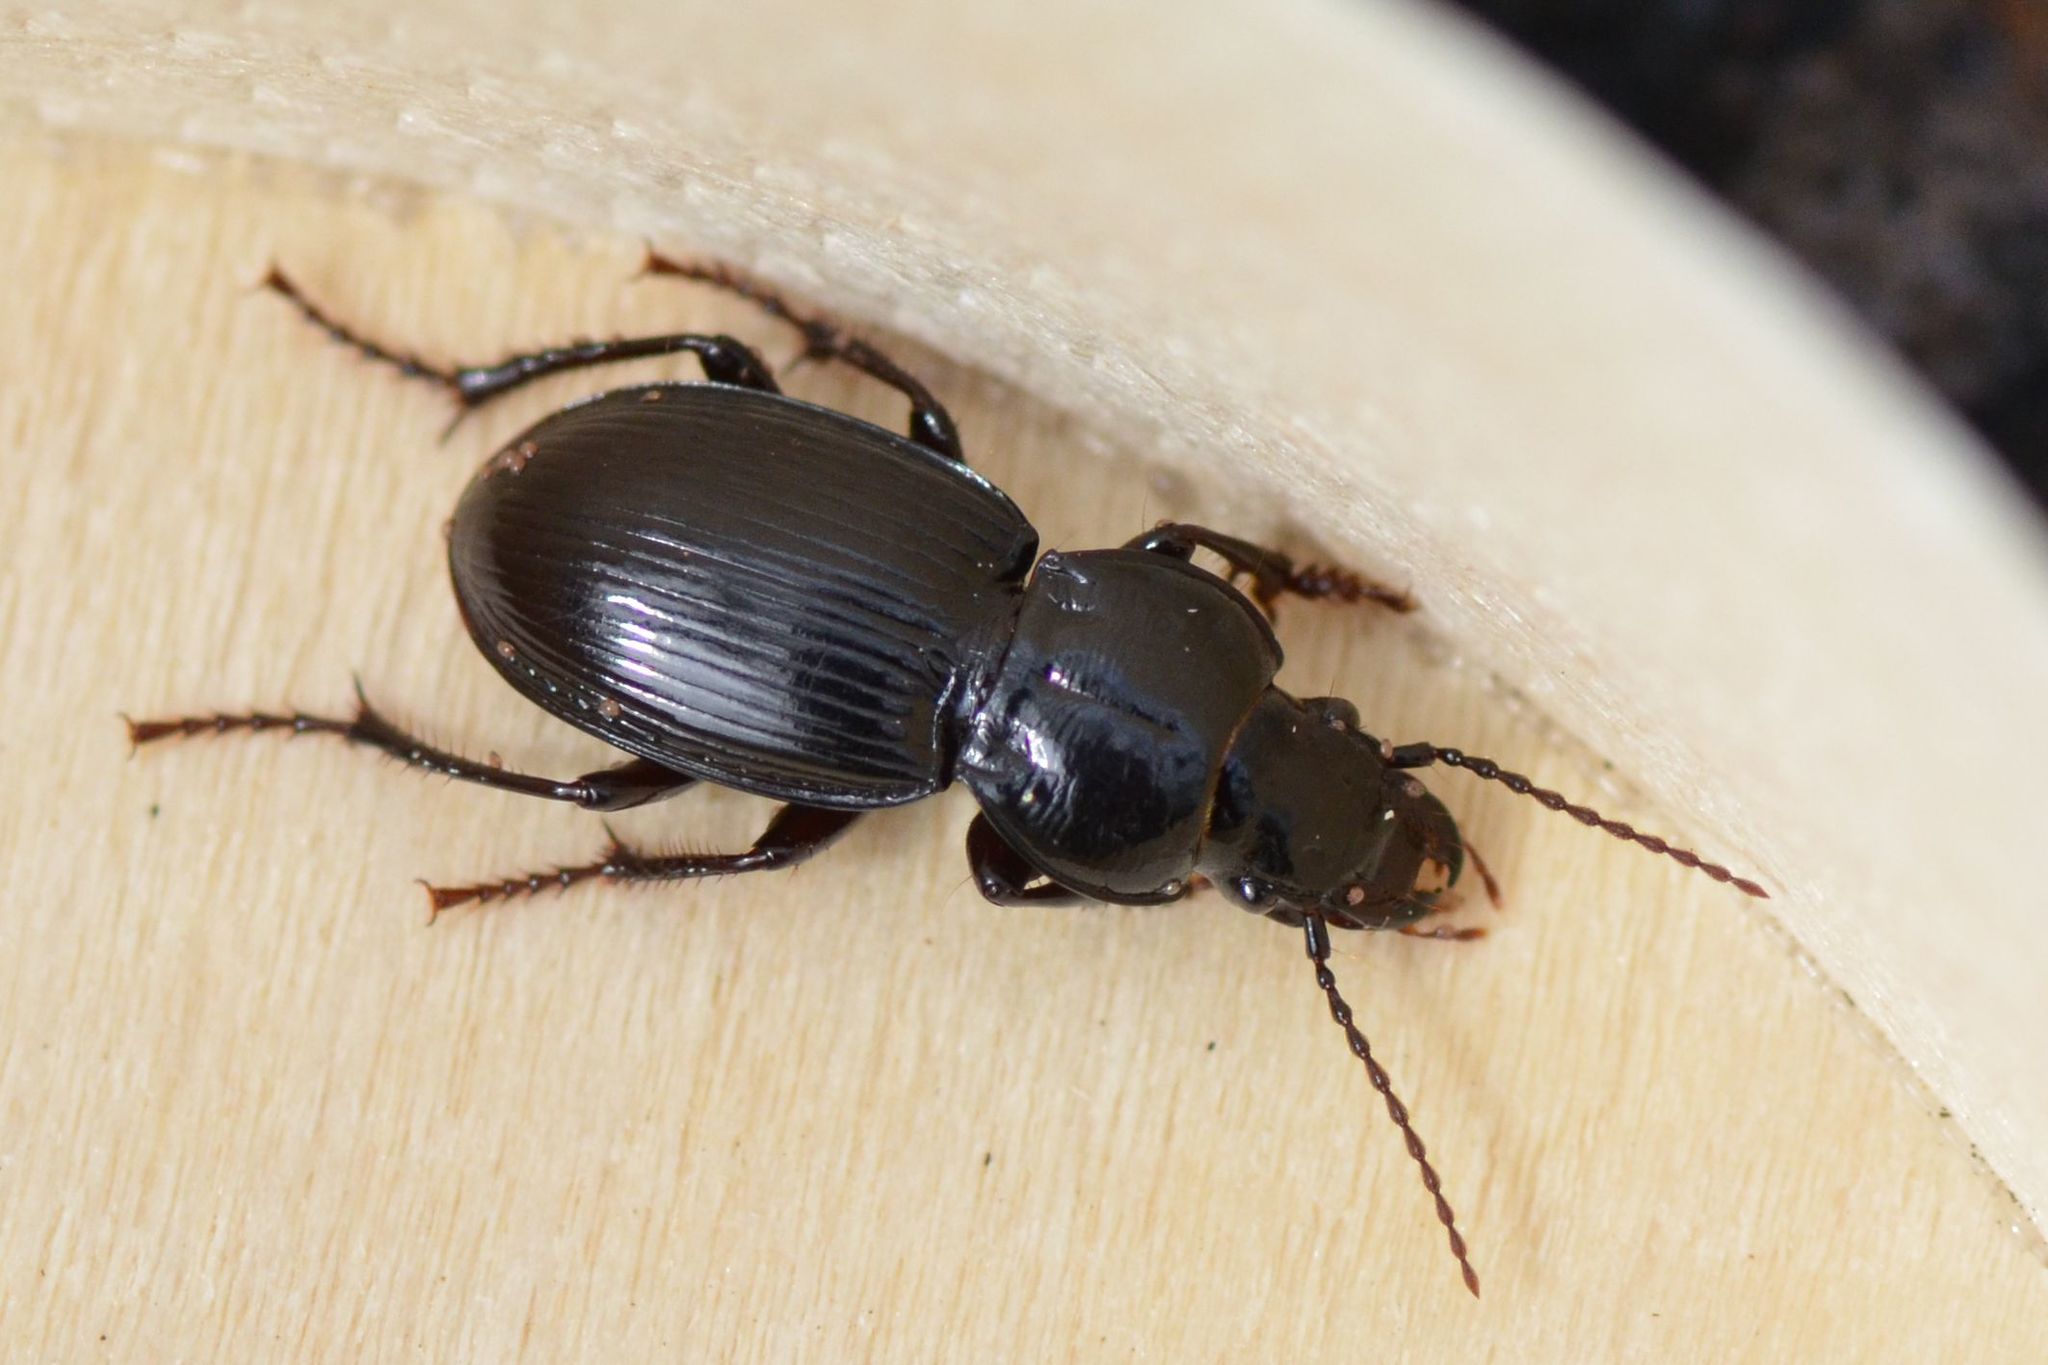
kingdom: Animalia
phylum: Arthropoda
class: Insecta
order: Coleoptera
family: Carabidae
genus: Molops
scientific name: Molops elatus
